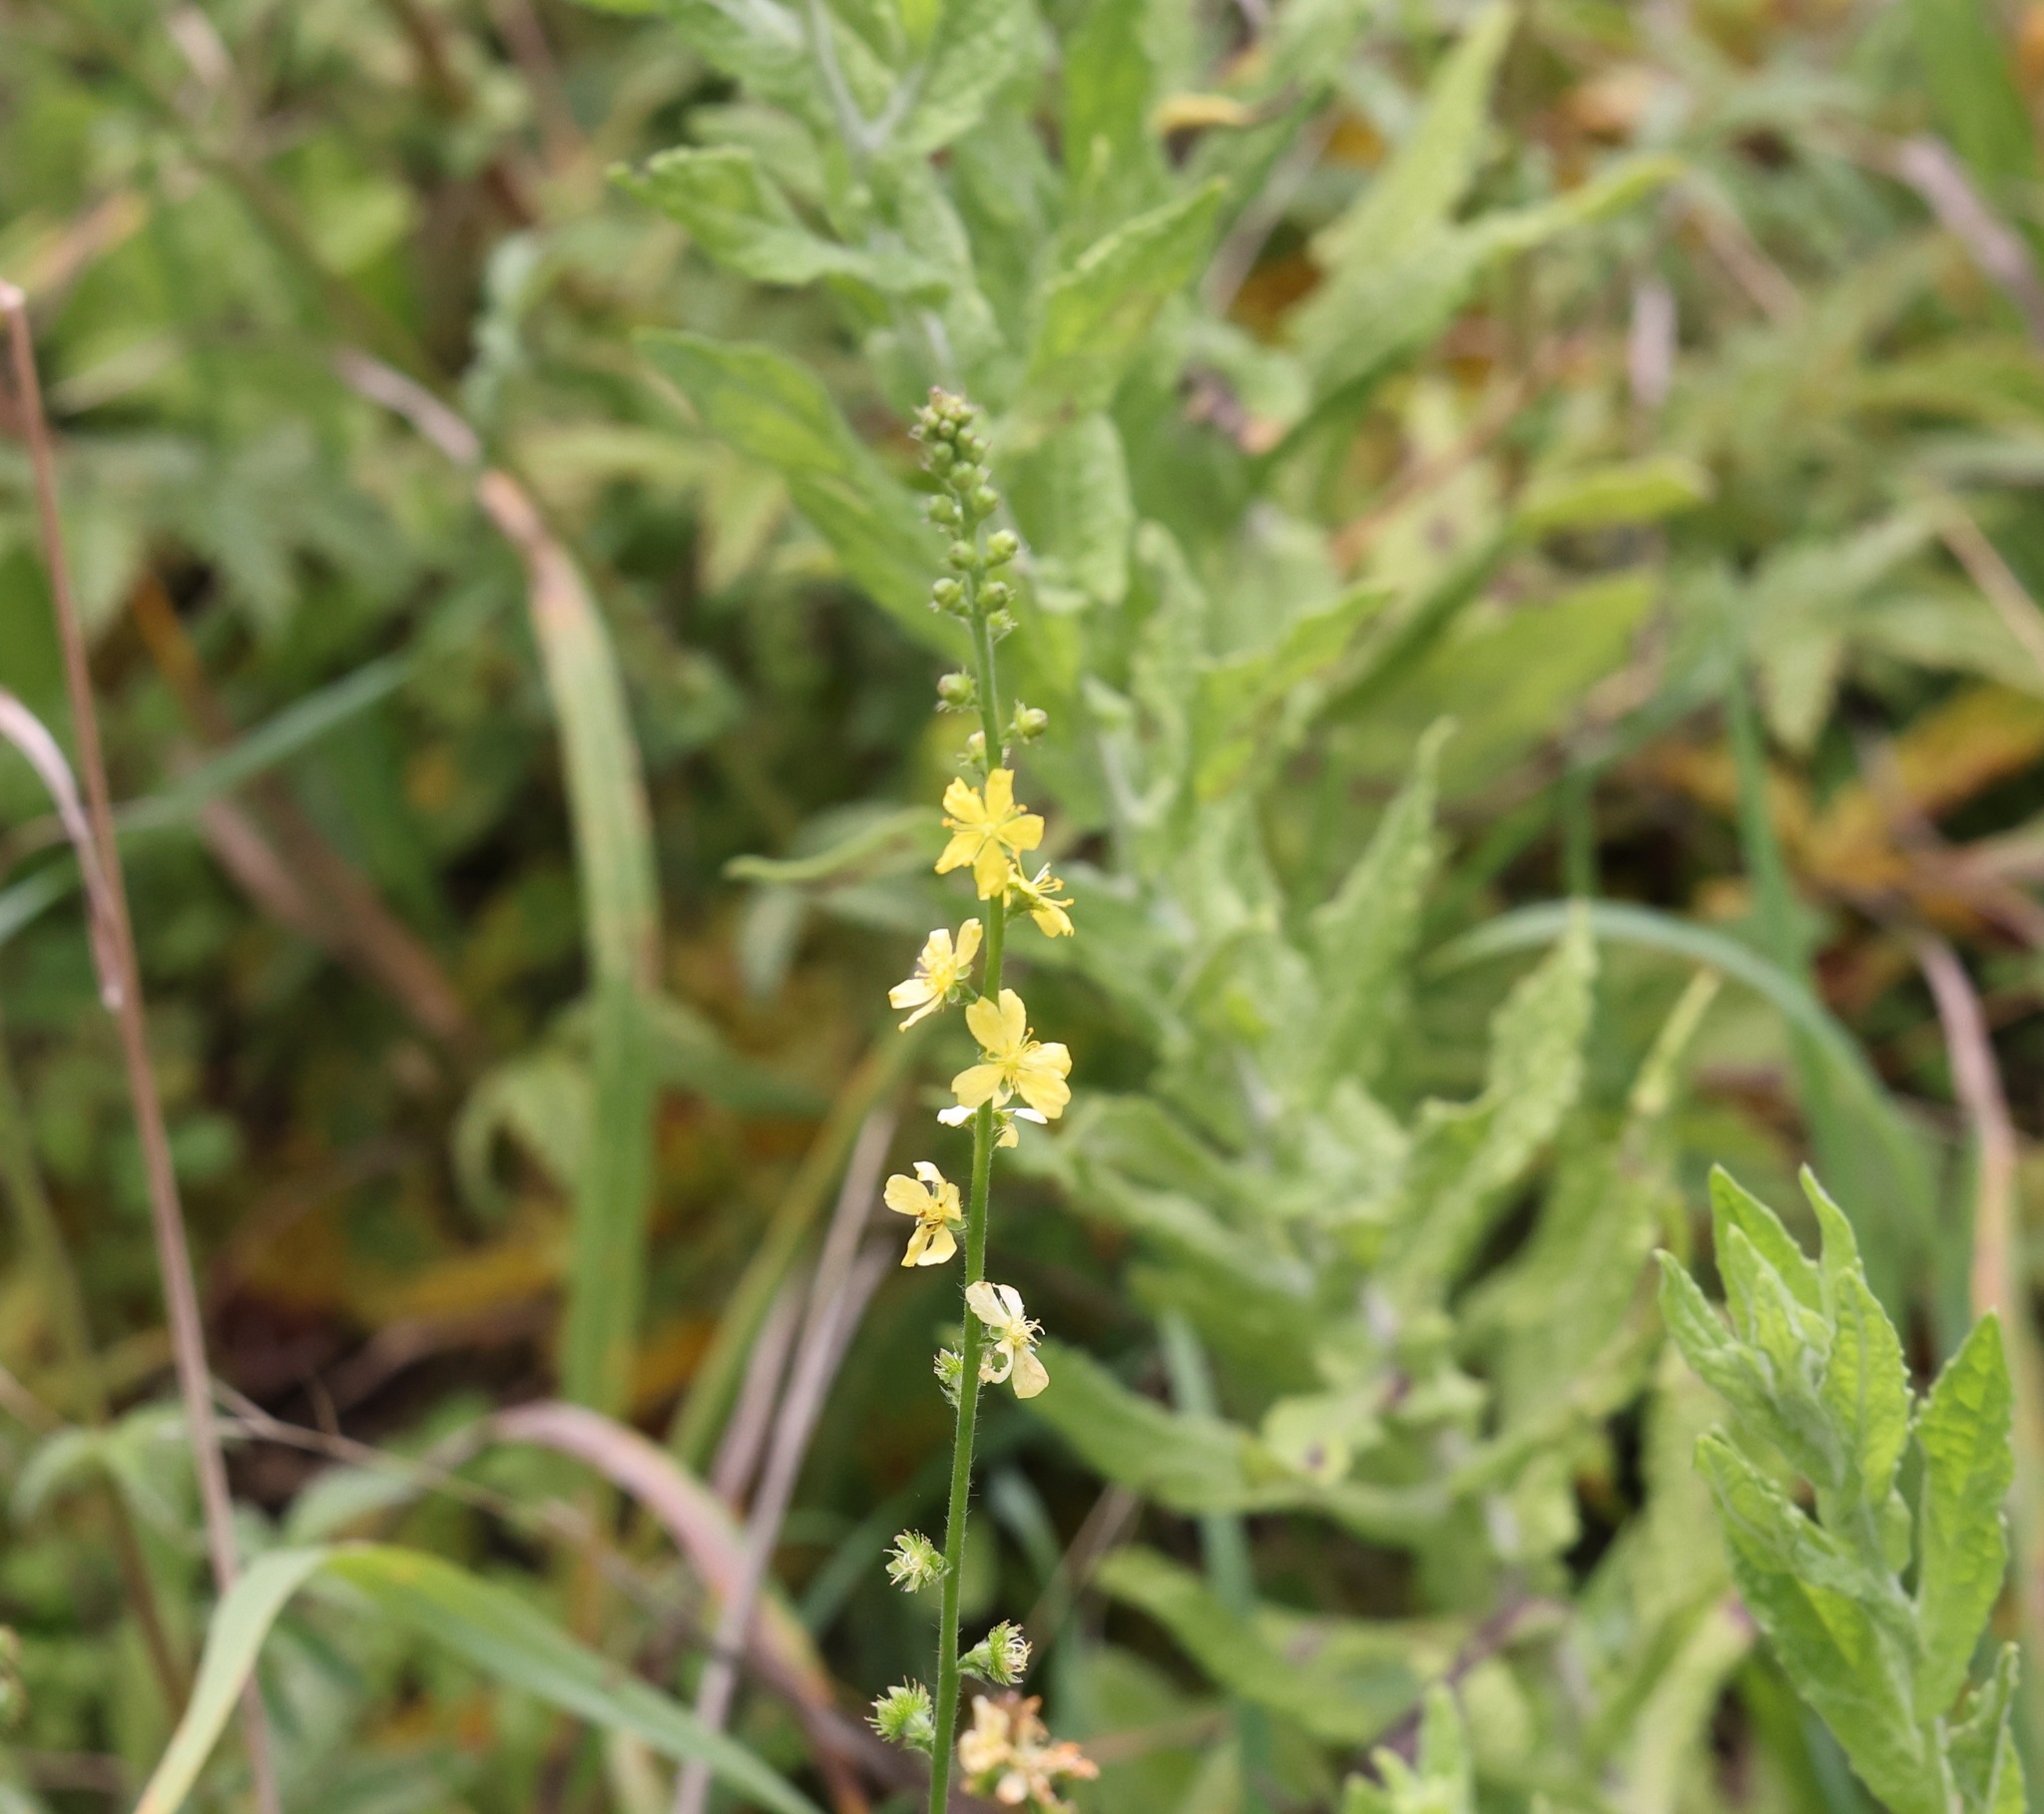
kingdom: Plantae
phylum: Tracheophyta
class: Magnoliopsida
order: Rosales
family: Rosaceae
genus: Agrimonia
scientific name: Agrimonia eupatoria
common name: Agrimony
